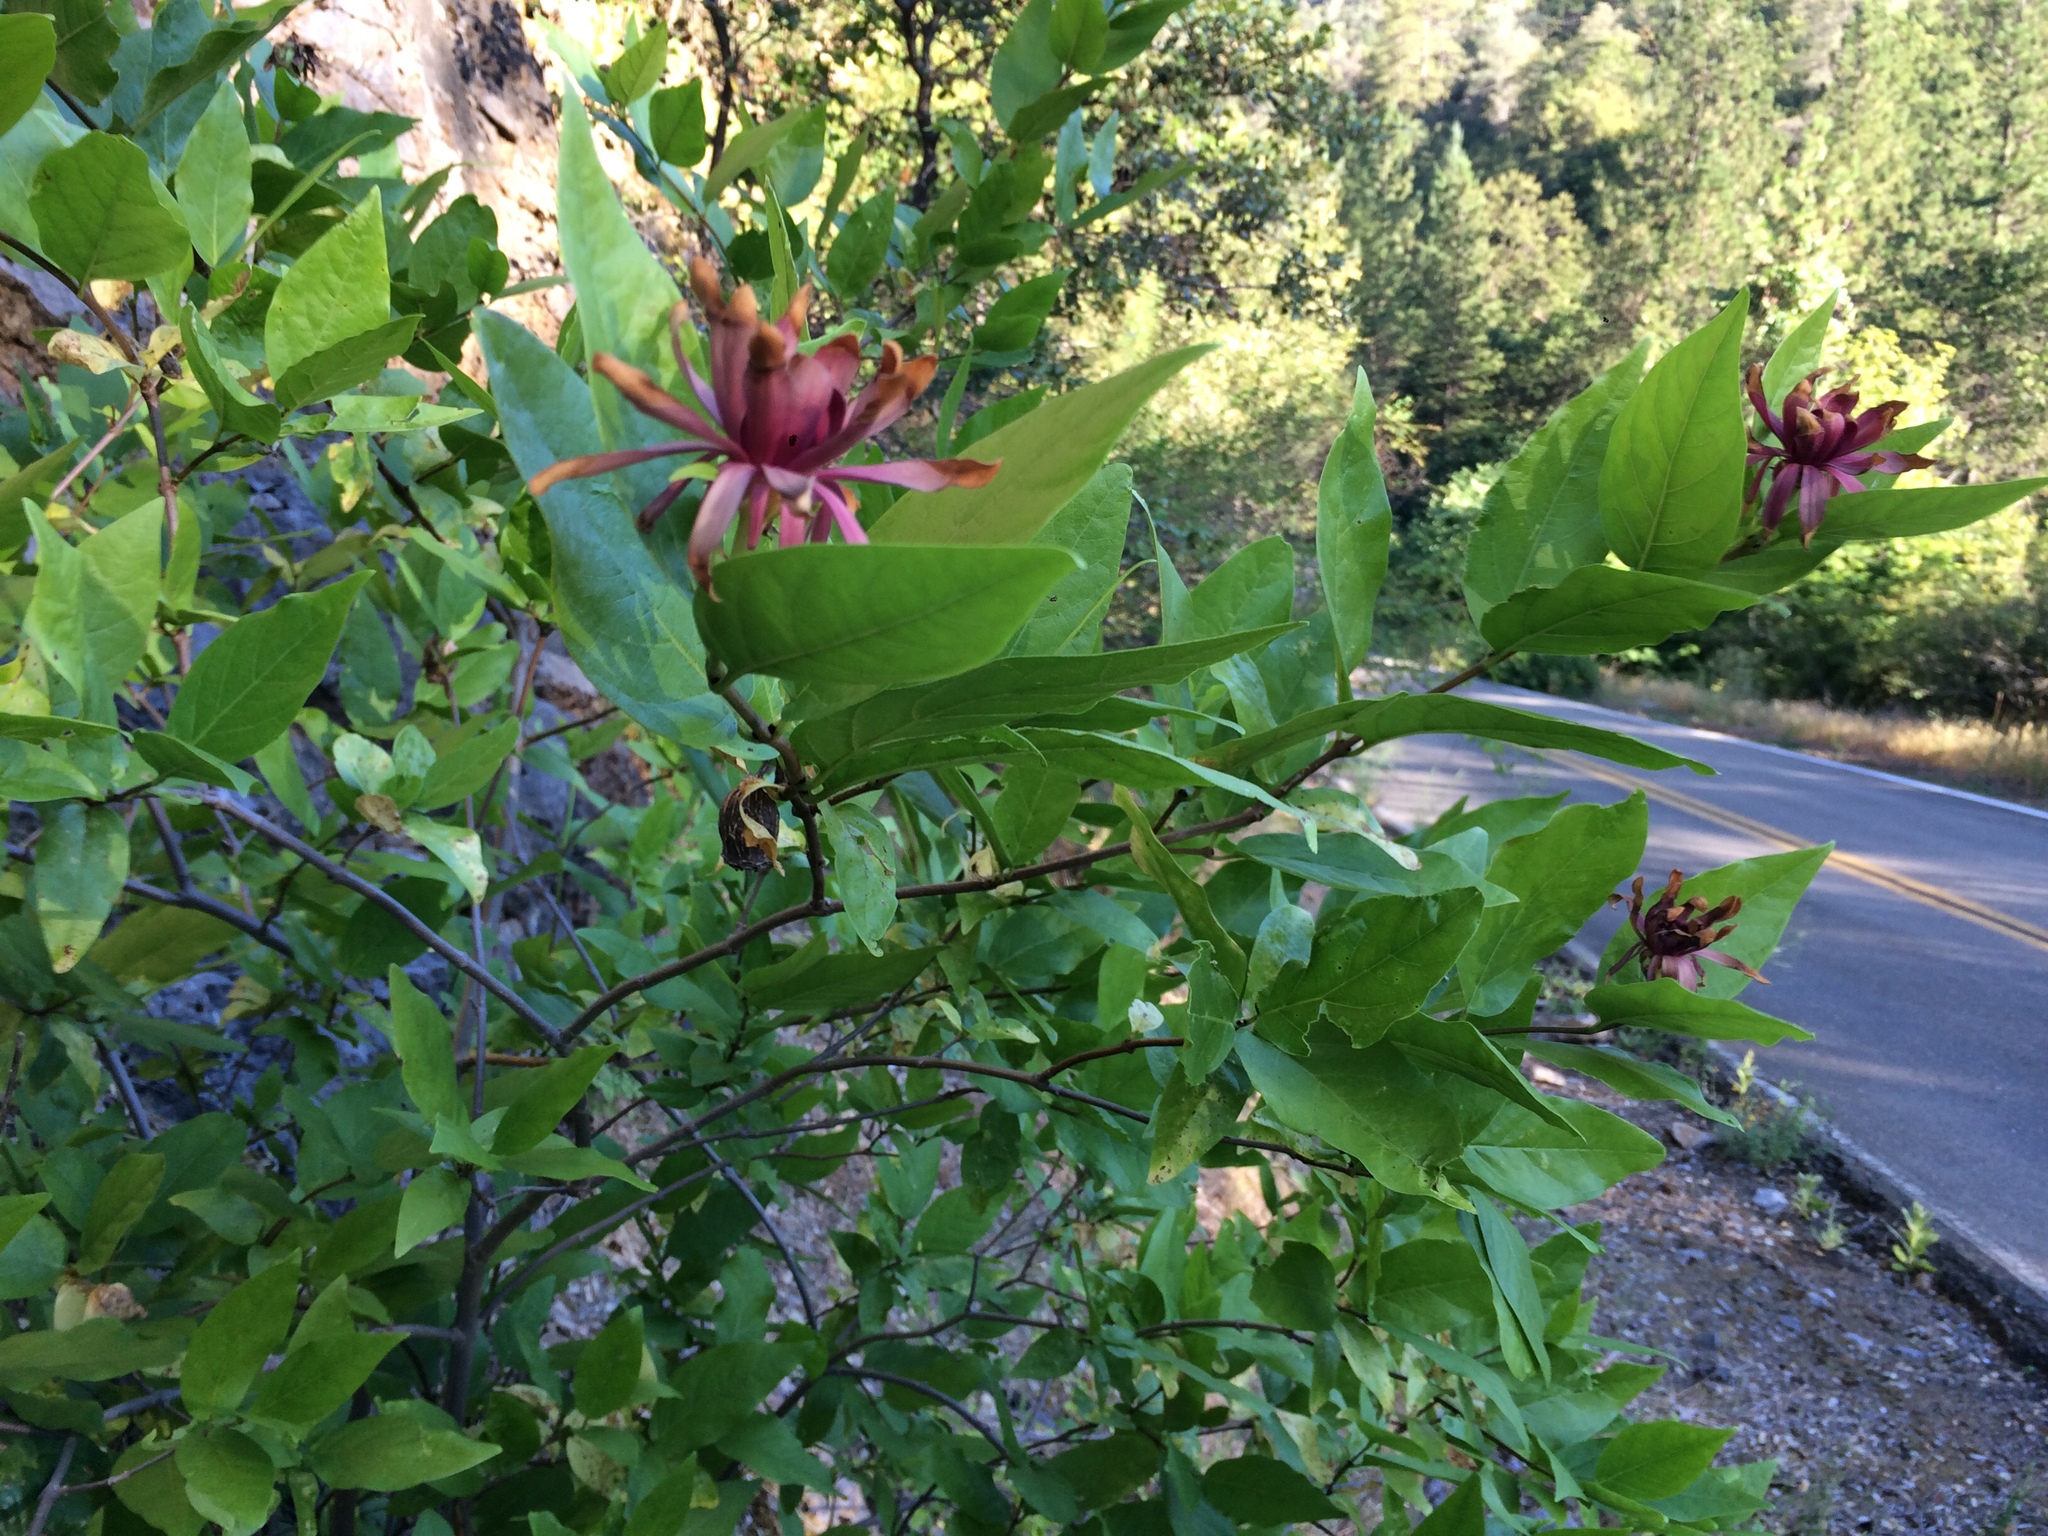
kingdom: Plantae
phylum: Tracheophyta
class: Magnoliopsida
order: Laurales
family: Calycanthaceae
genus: Calycanthus
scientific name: Calycanthus occidentalis
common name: California spicebush
